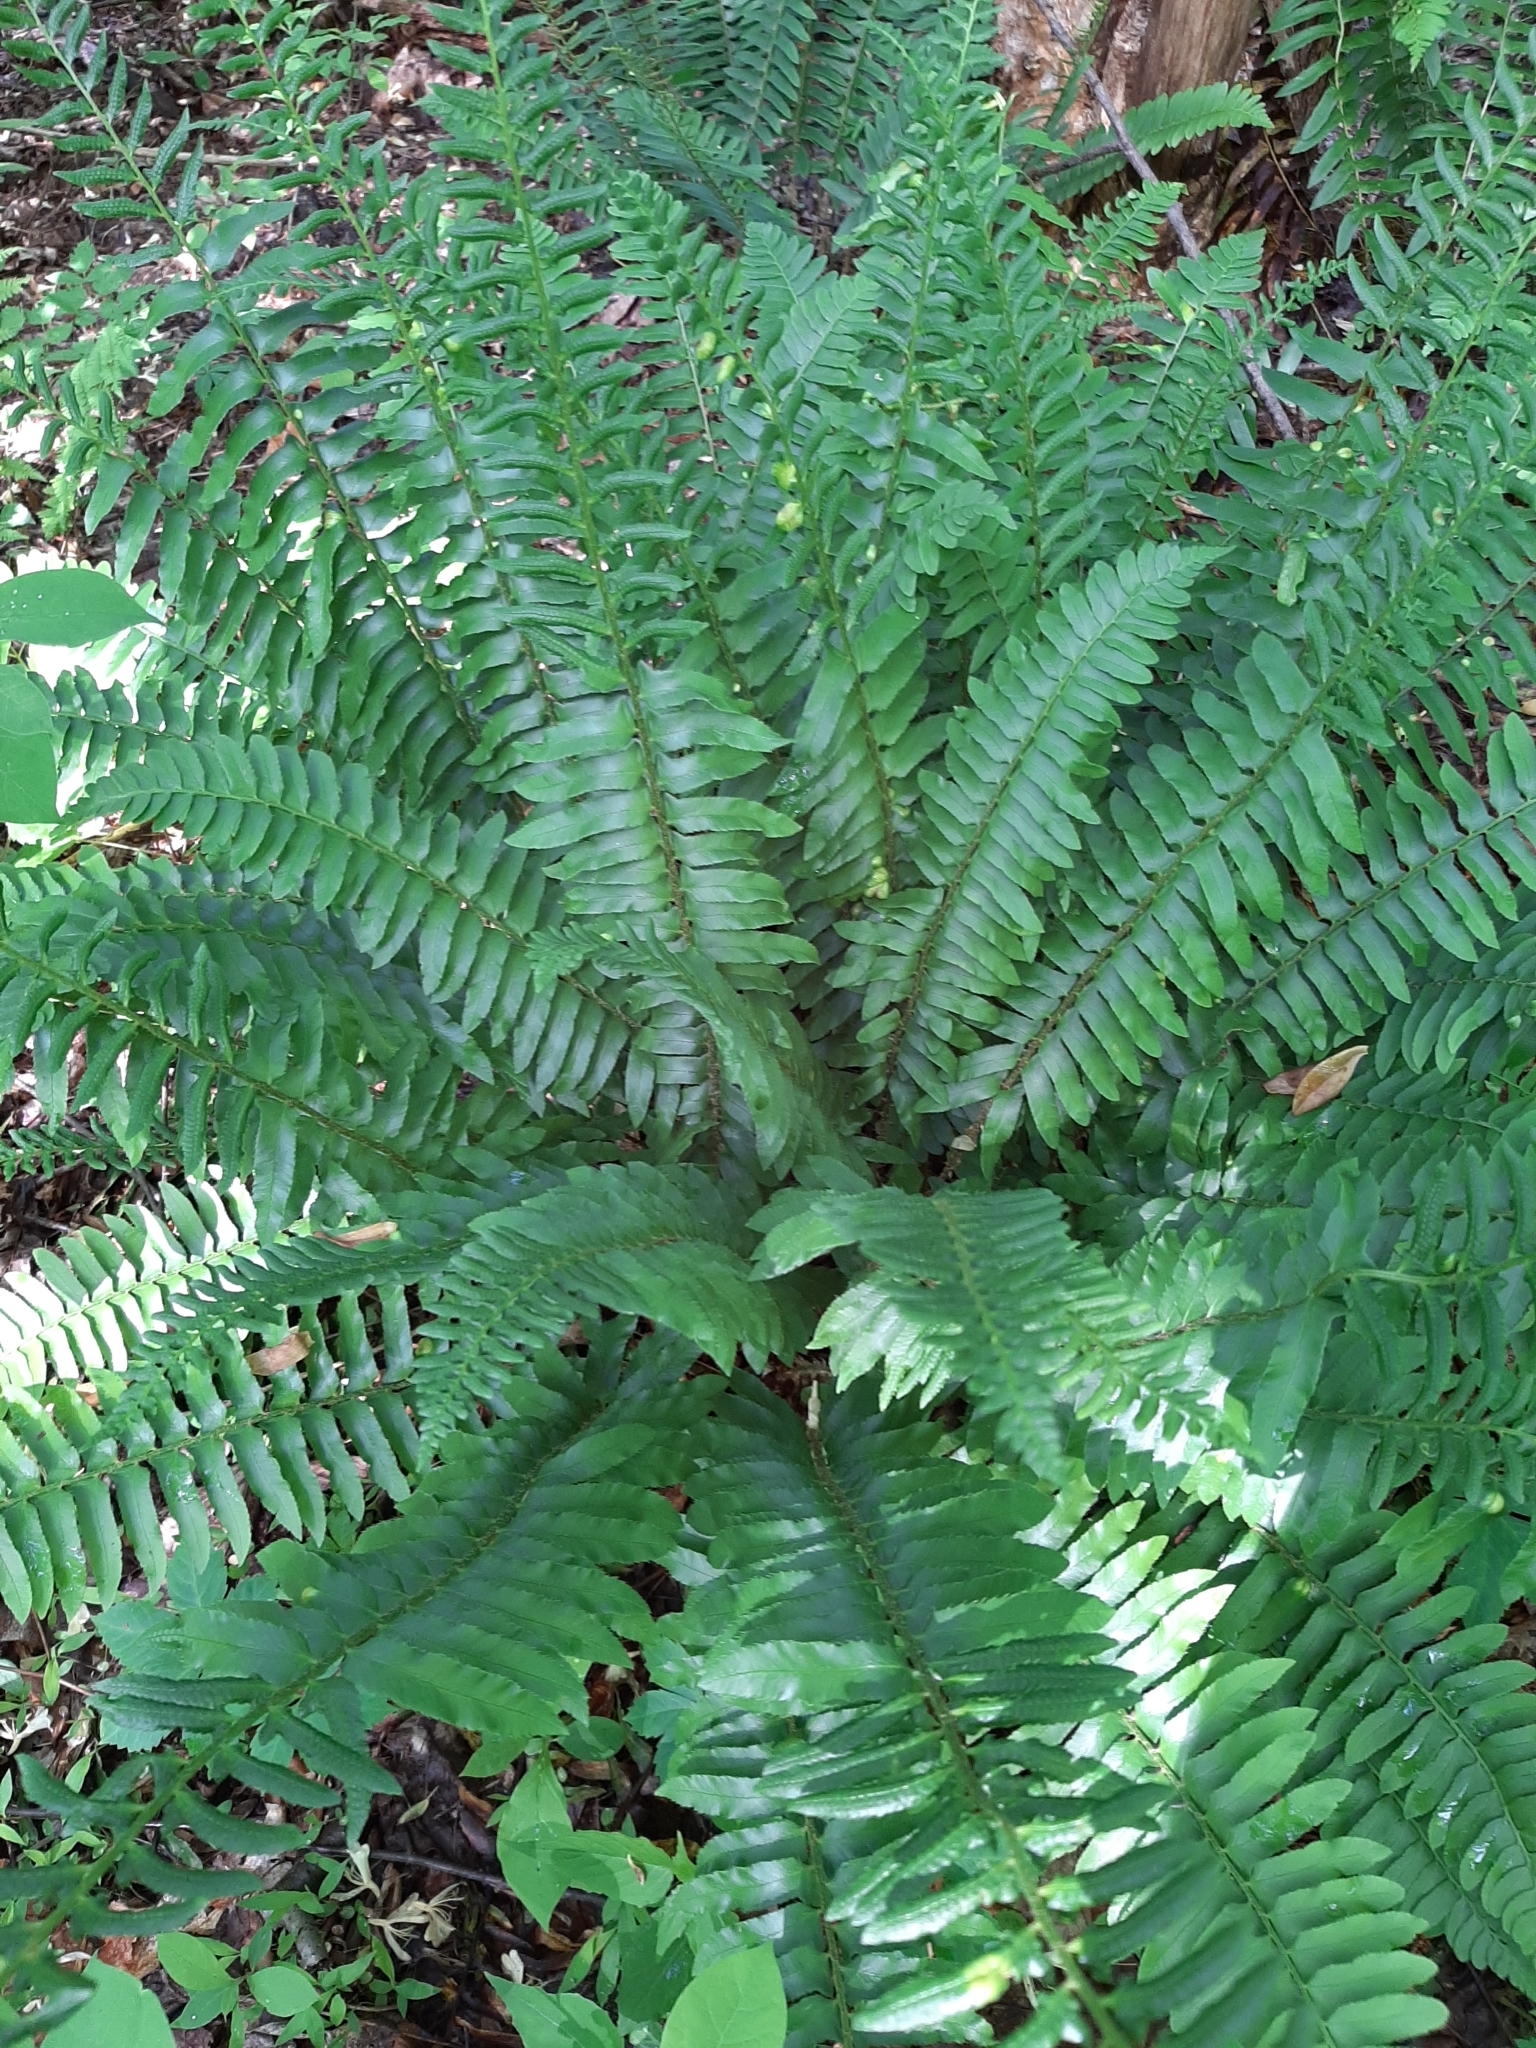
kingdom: Plantae
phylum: Tracheophyta
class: Polypodiopsida
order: Polypodiales
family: Dryopteridaceae
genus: Polystichum
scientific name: Polystichum acrostichoides
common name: Christmas fern
